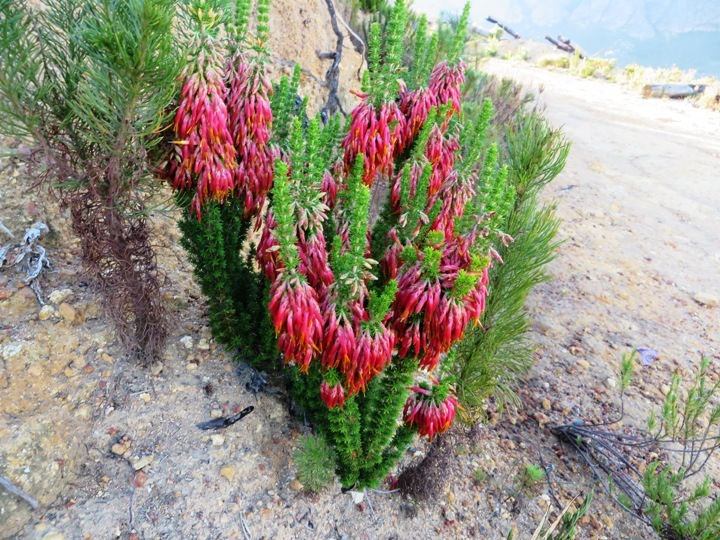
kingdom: Plantae
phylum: Tracheophyta
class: Magnoliopsida
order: Ericales
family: Ericaceae
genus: Erica
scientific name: Erica coccinea
